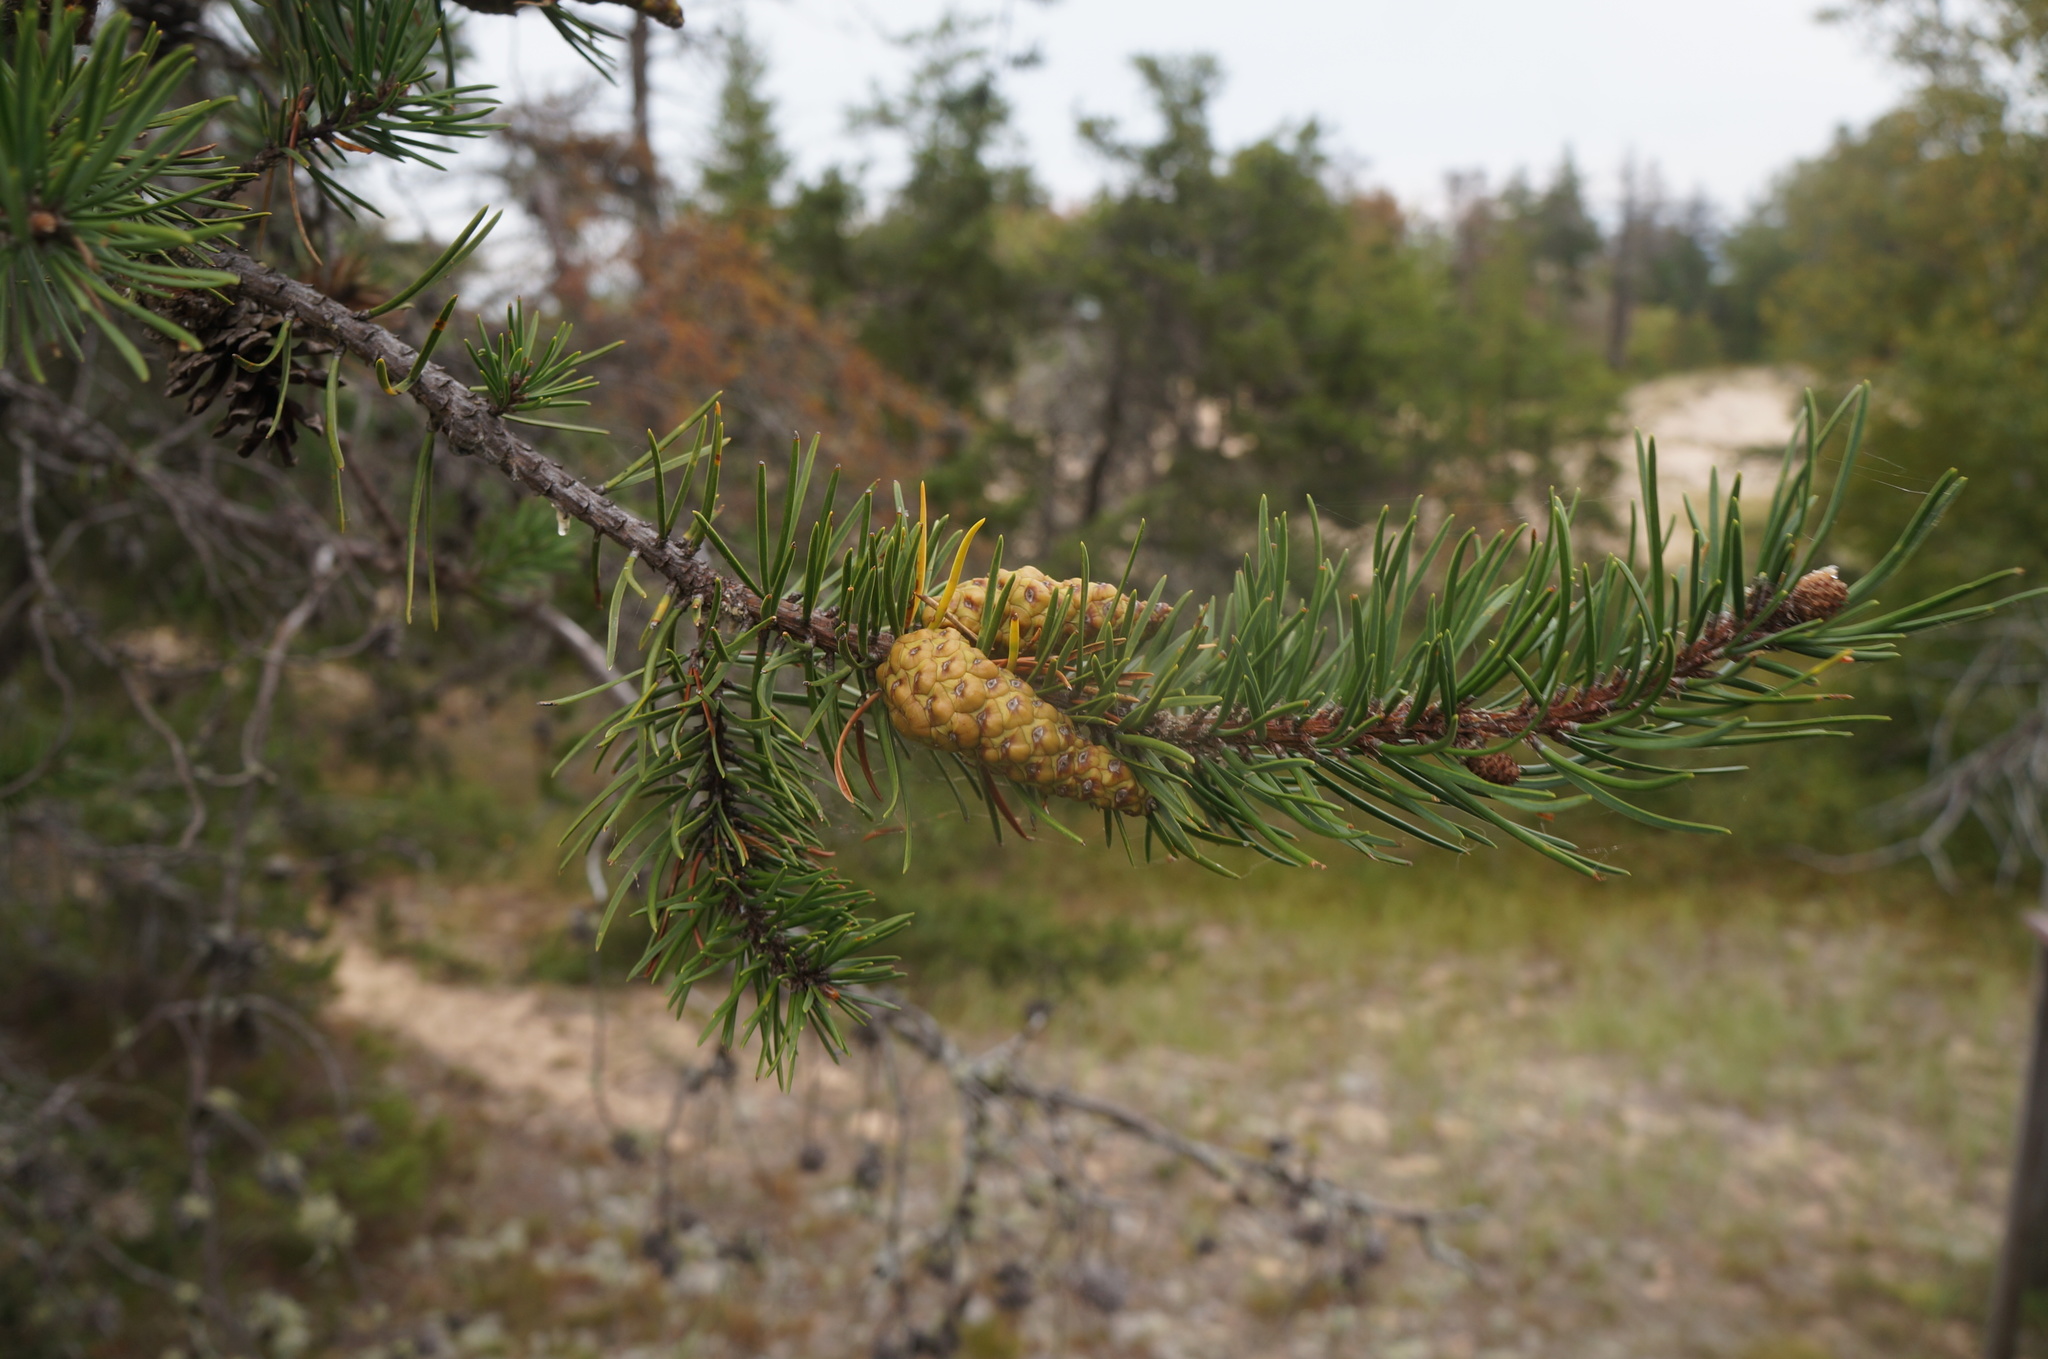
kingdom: Plantae
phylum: Tracheophyta
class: Pinopsida
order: Pinales
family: Pinaceae
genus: Pinus
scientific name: Pinus banksiana
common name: Jack pine
